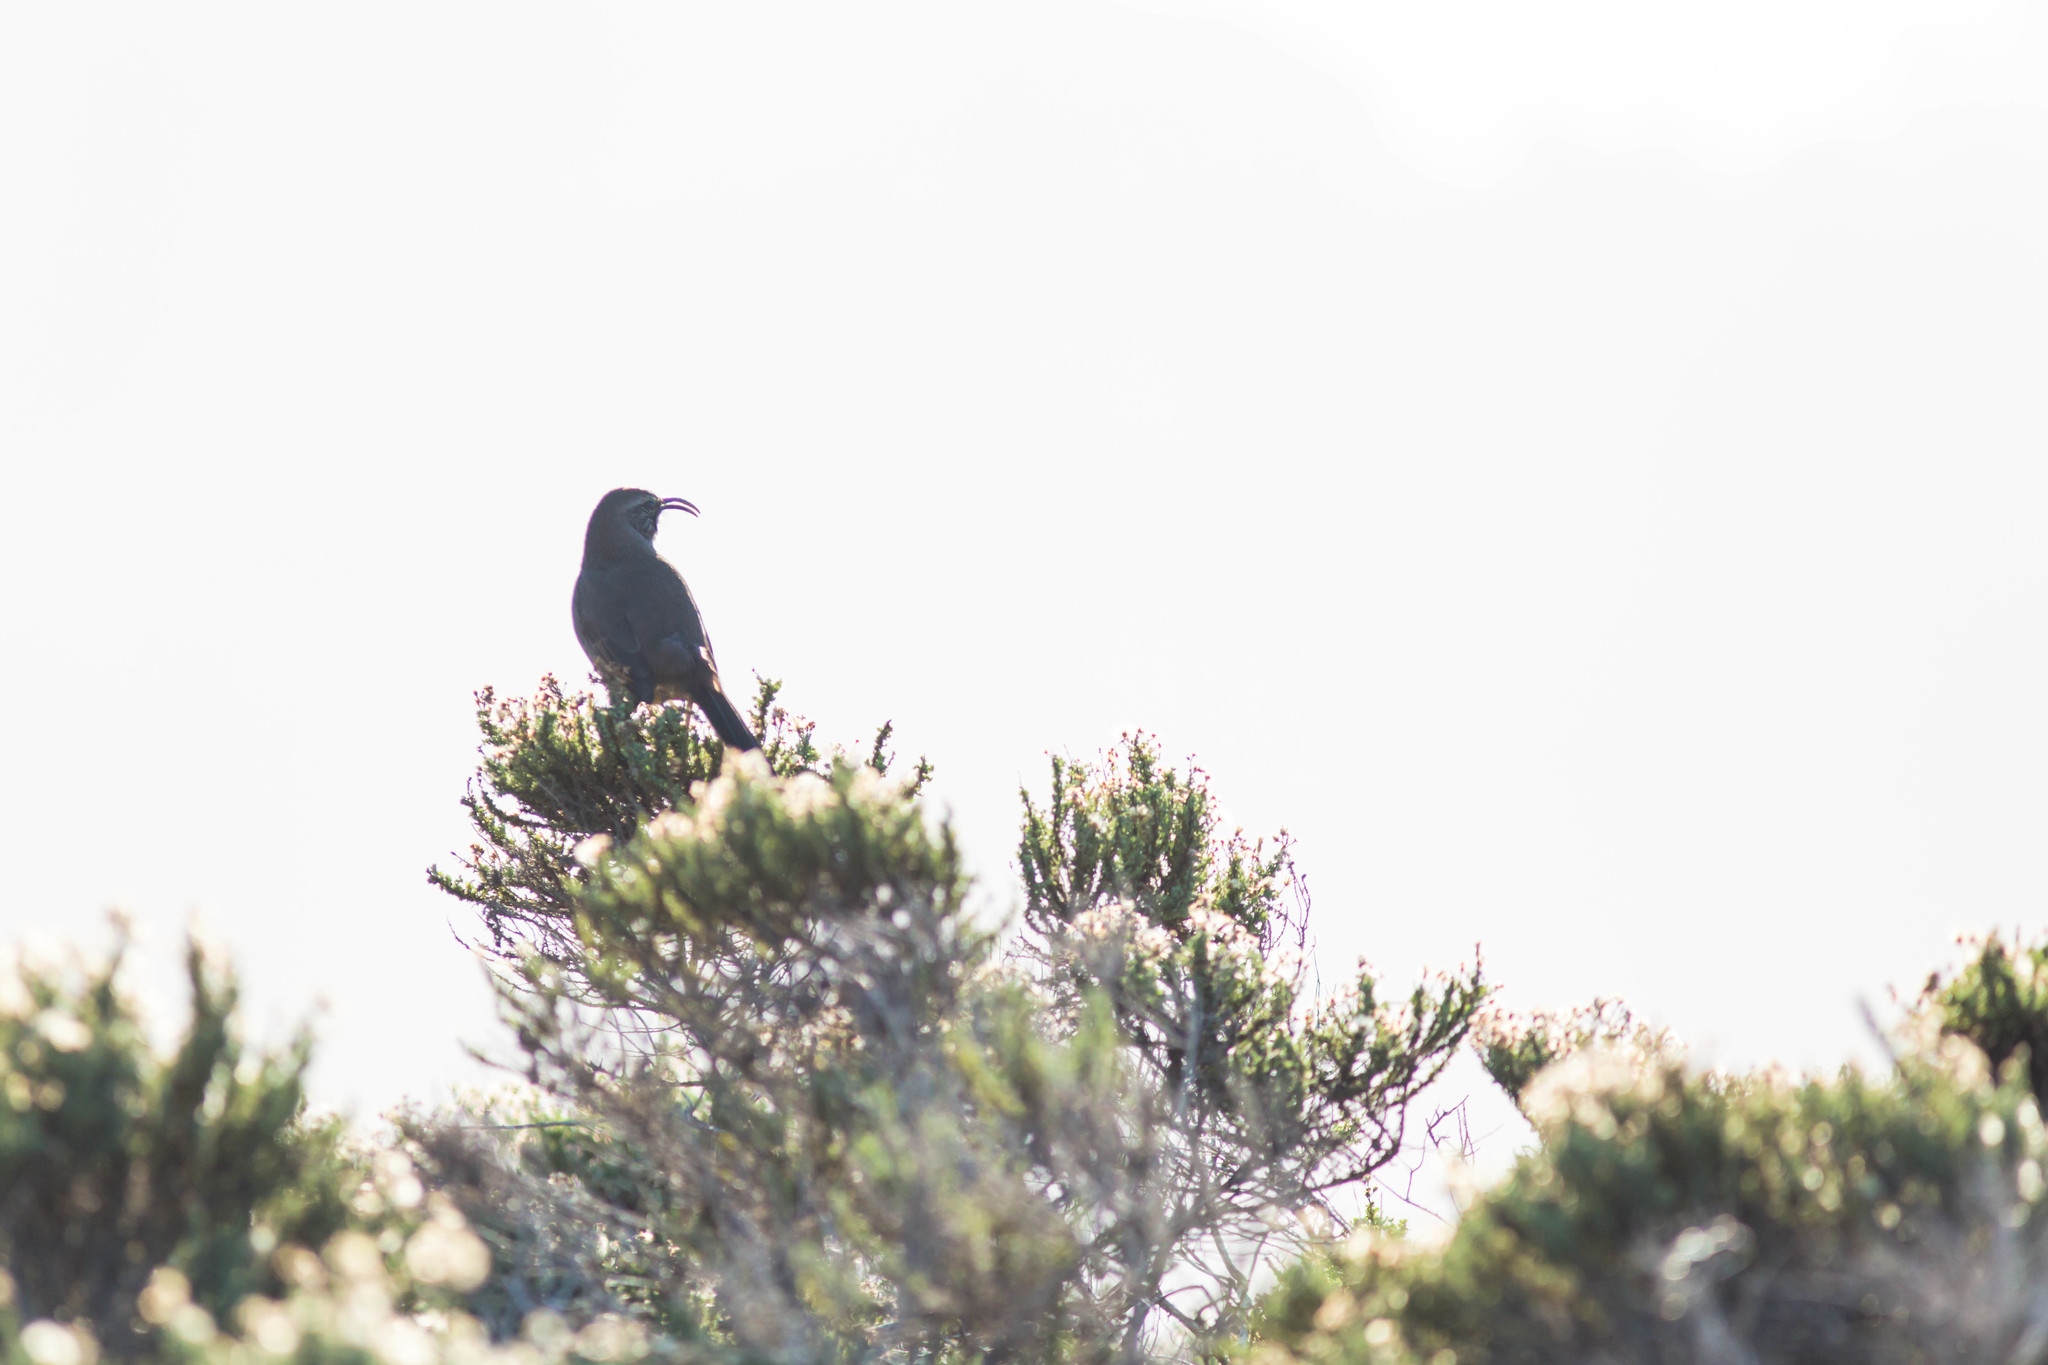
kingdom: Animalia
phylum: Chordata
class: Aves
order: Passeriformes
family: Mimidae
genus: Toxostoma
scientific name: Toxostoma redivivum
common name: California thrasher
